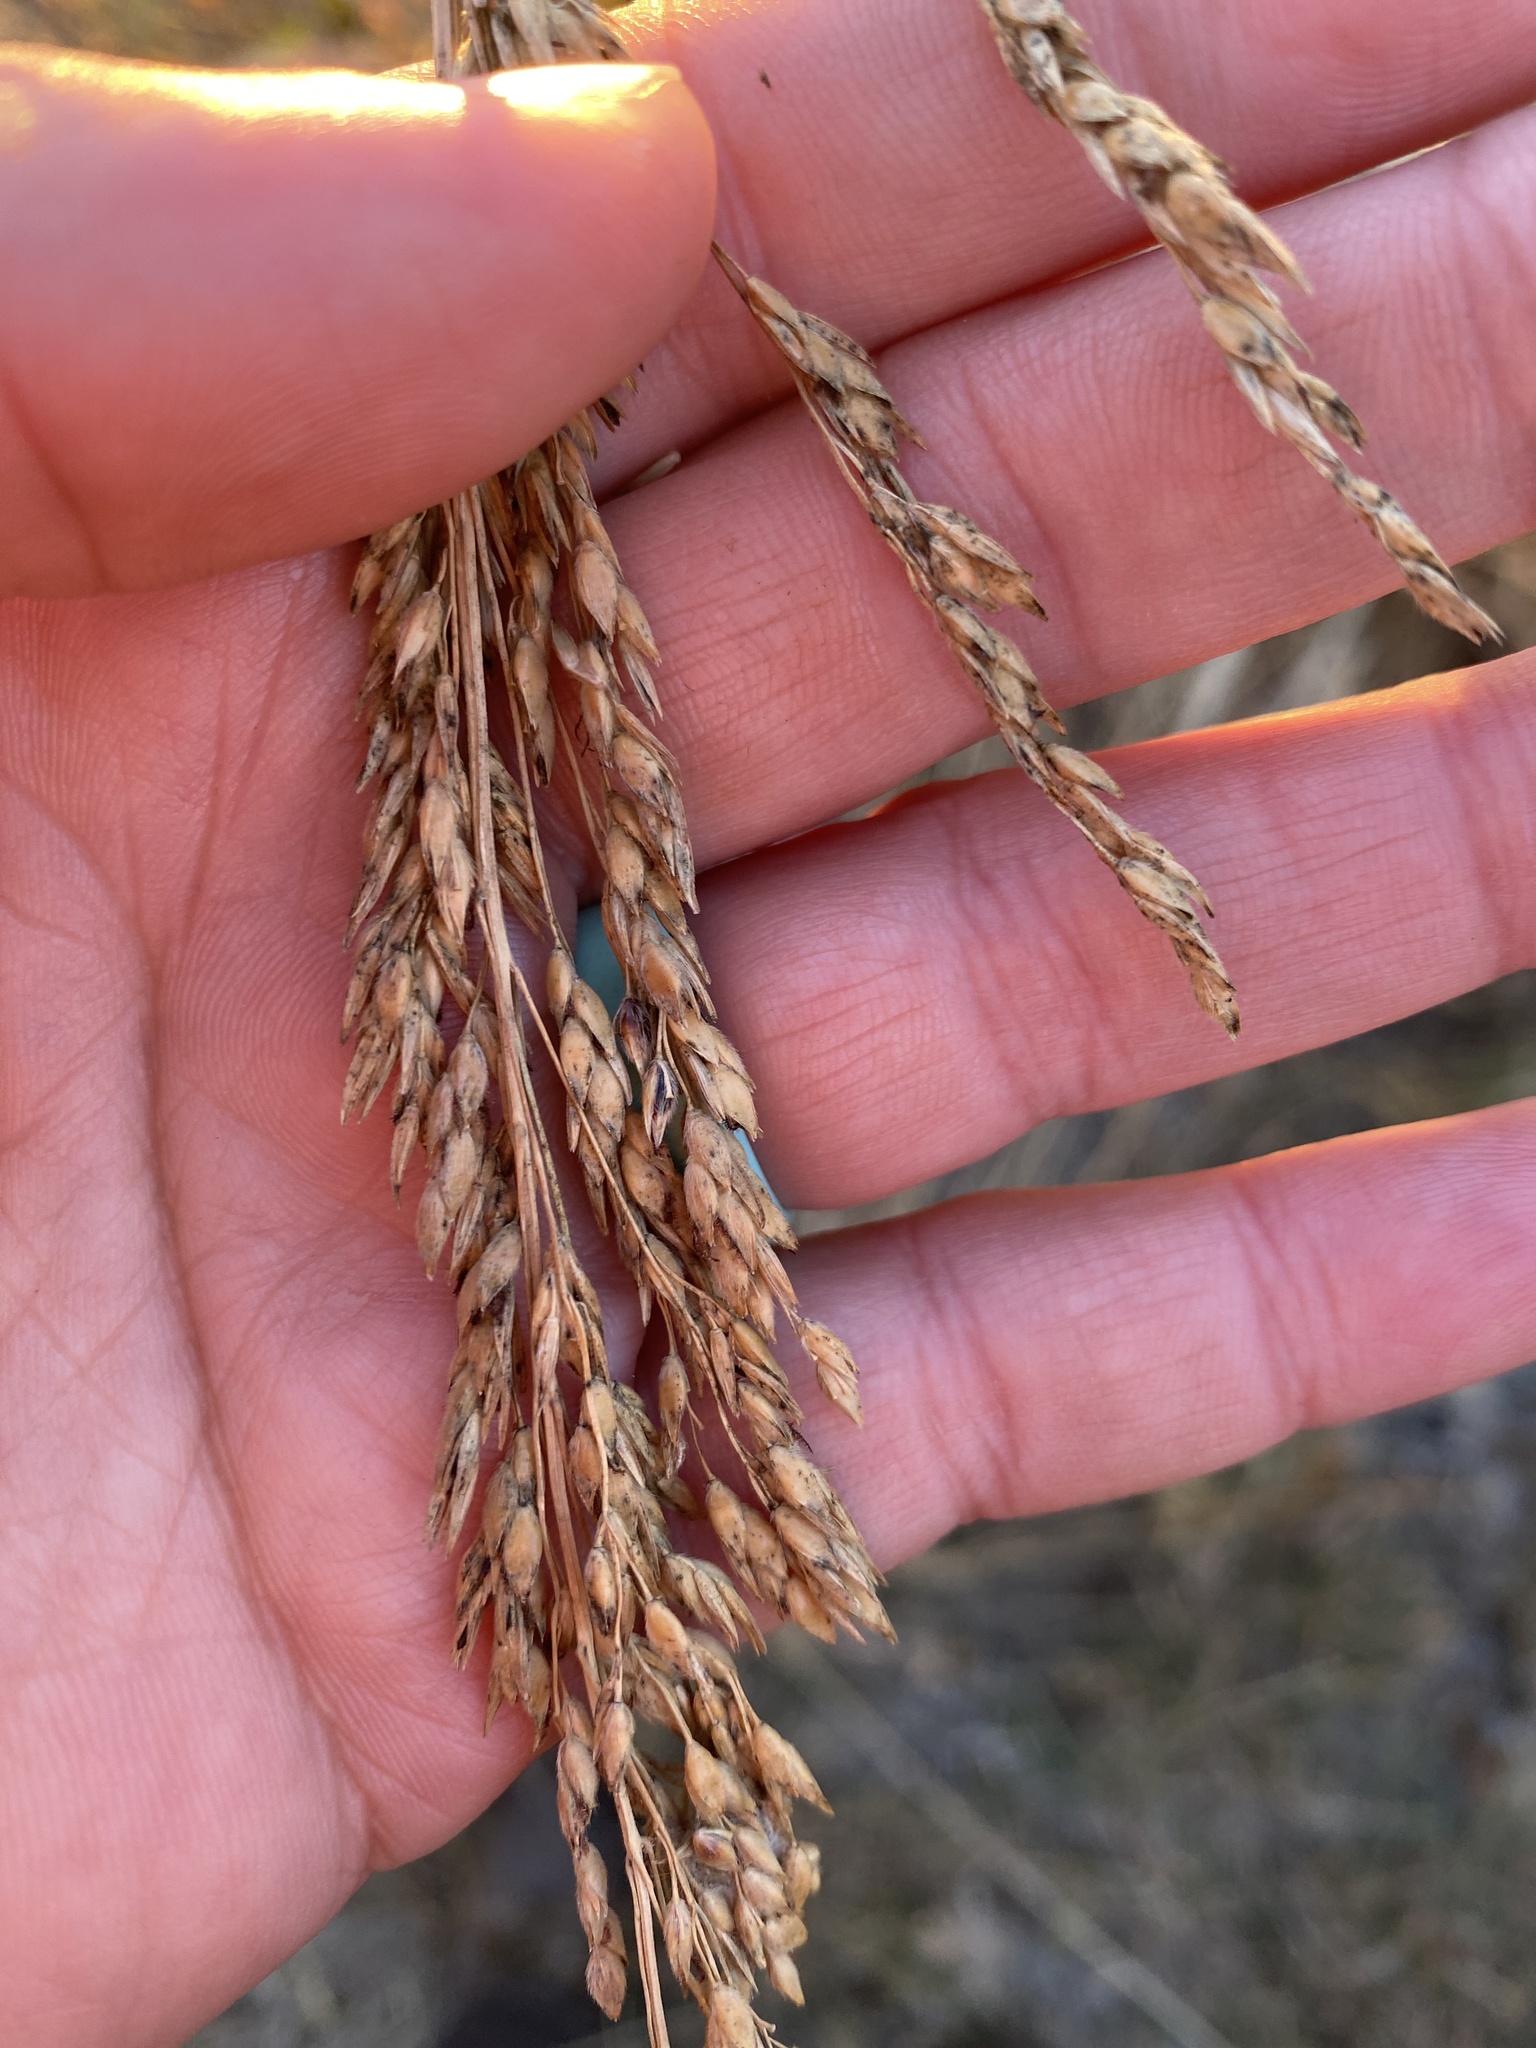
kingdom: Plantae
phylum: Tracheophyta
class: Liliopsida
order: Poales
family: Poaceae
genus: Sorghum
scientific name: Sorghum halepense
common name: Johnson-grass
